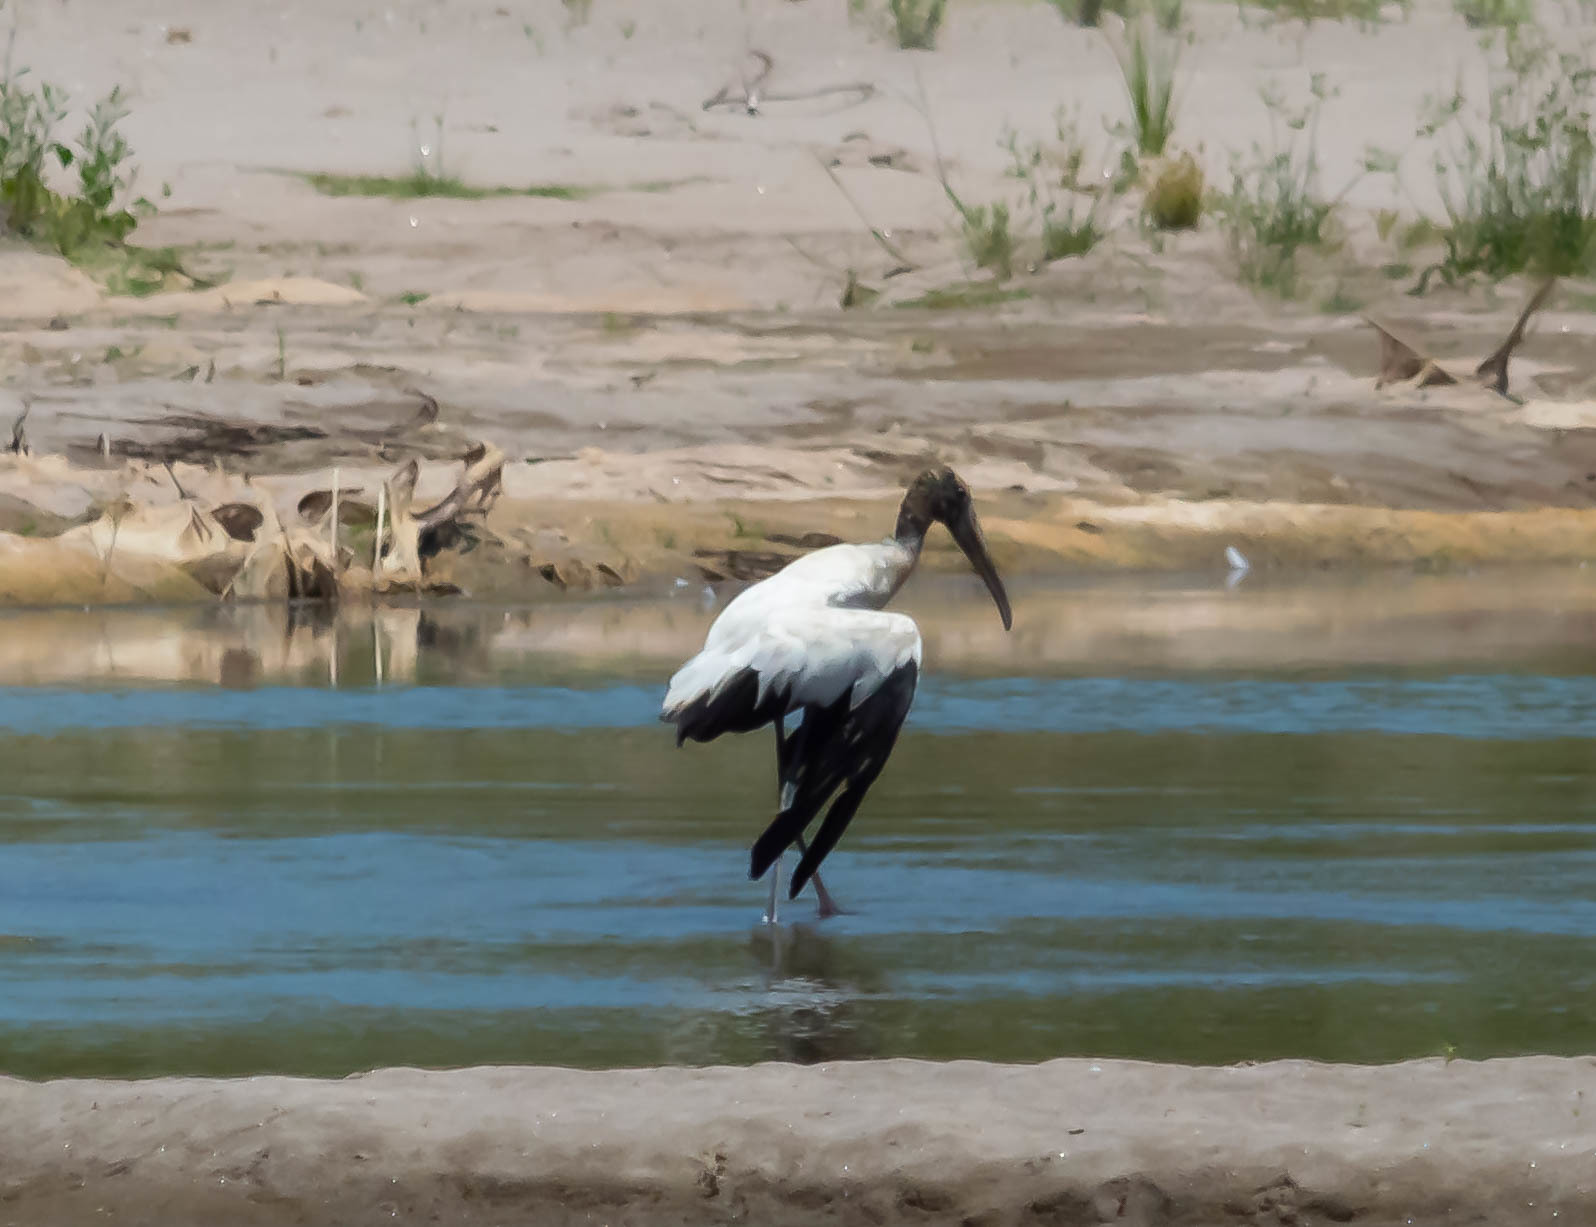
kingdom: Animalia
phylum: Chordata
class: Aves
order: Ciconiiformes
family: Ciconiidae
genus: Mycteria
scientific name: Mycteria americana
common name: Wood stork
